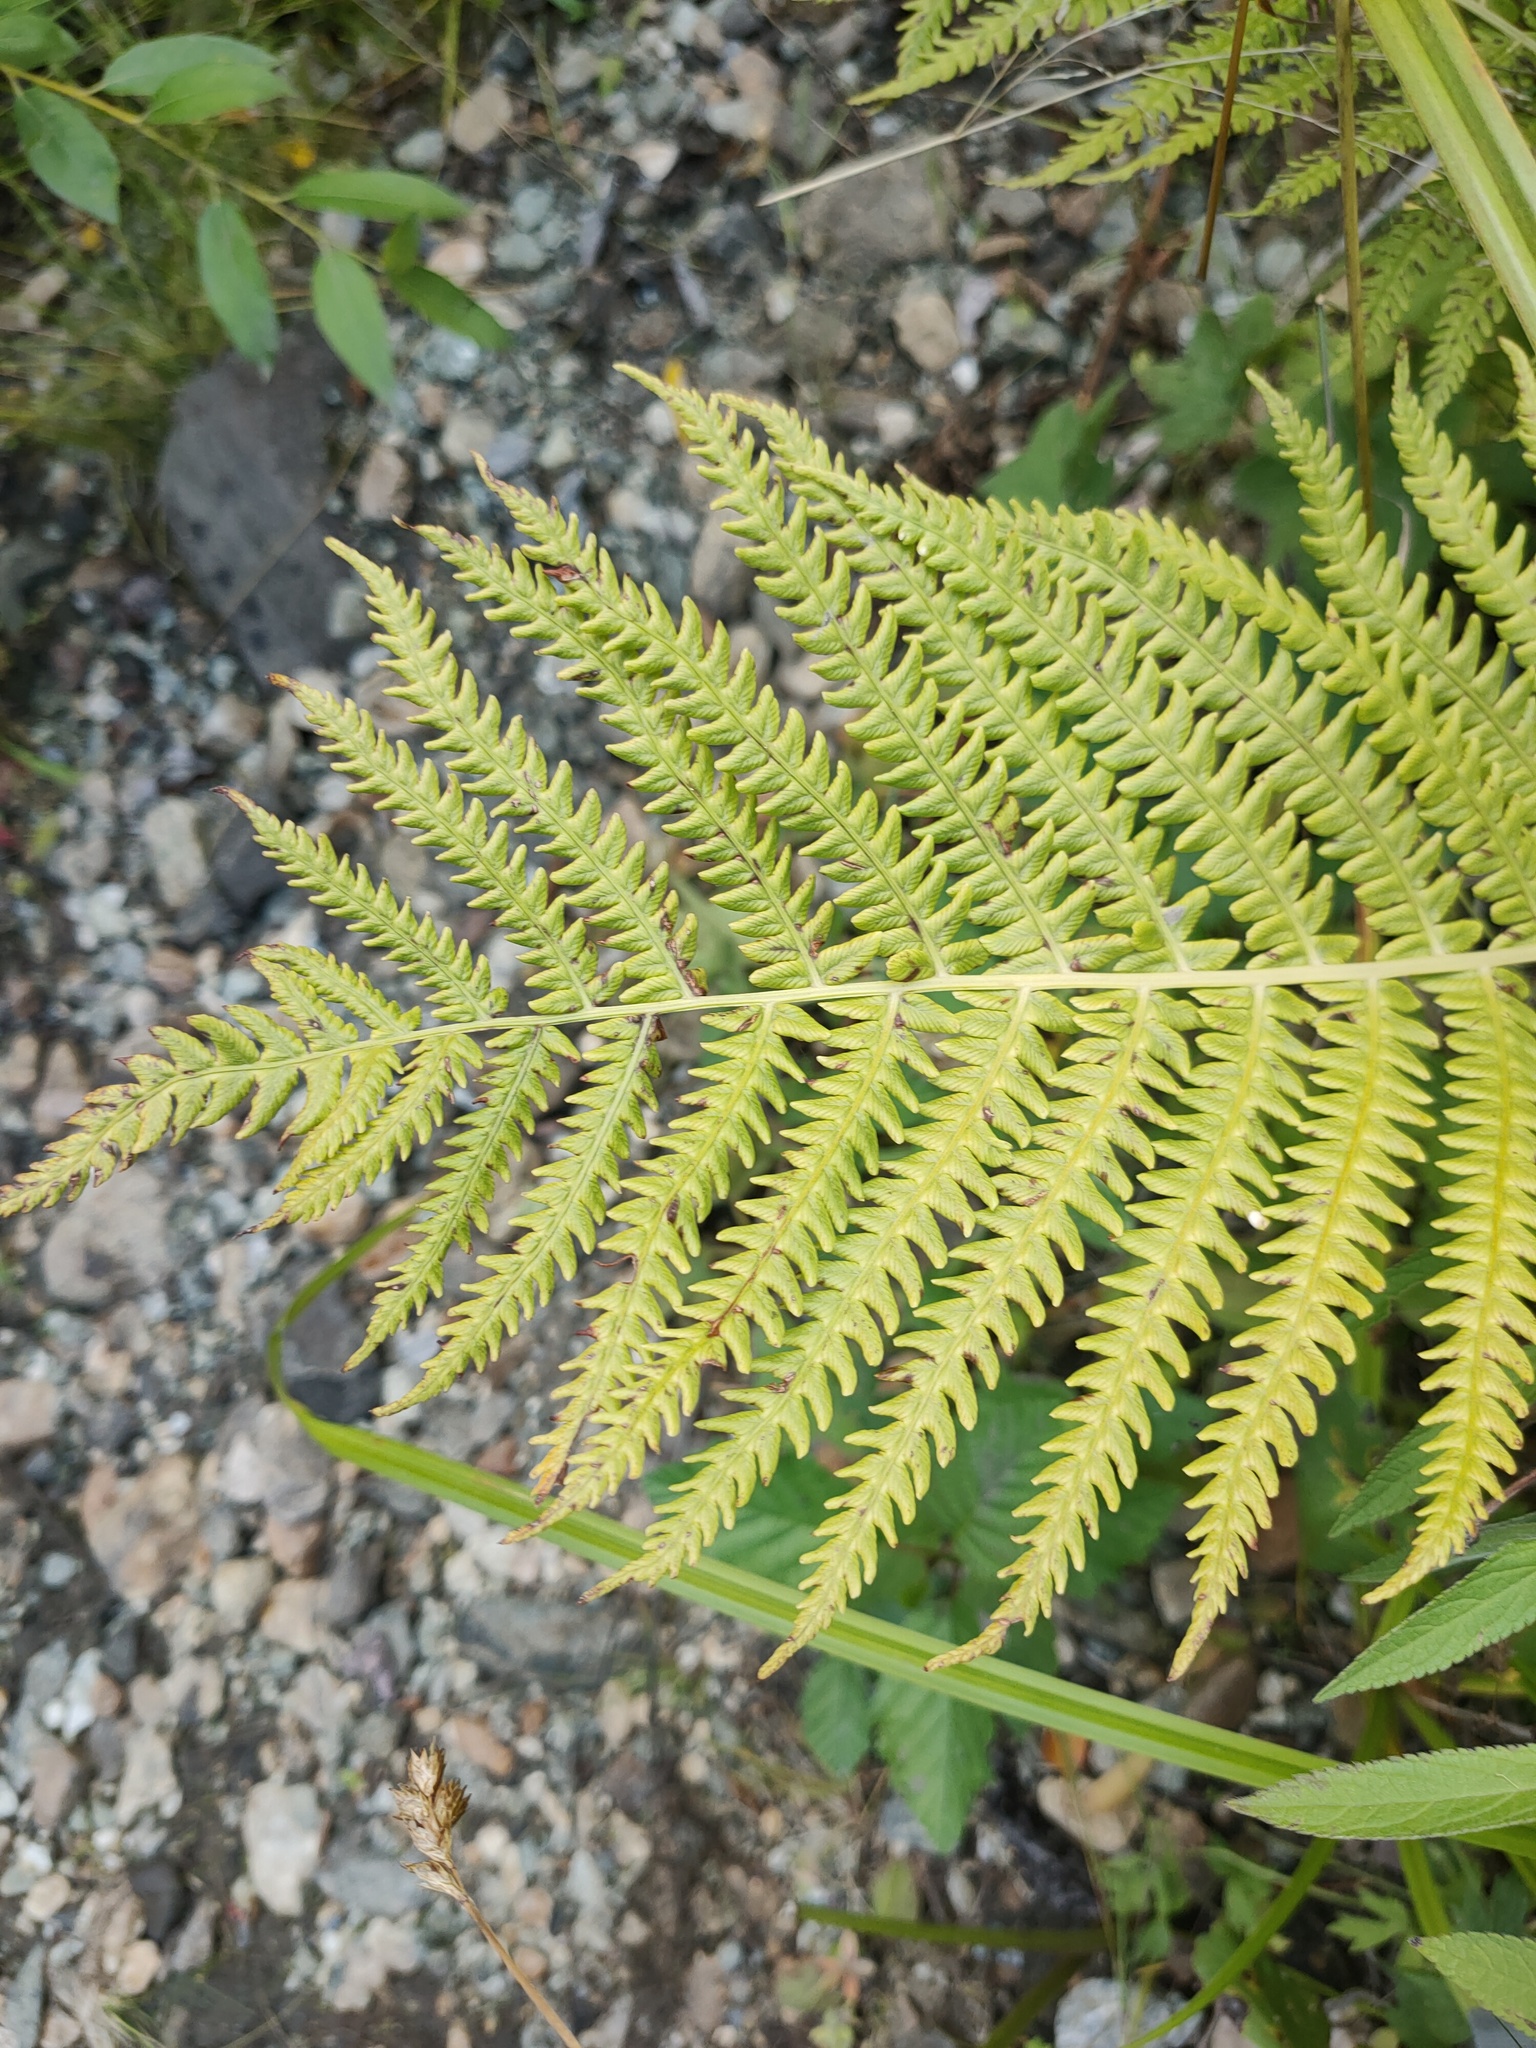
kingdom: Plantae
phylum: Tracheophyta
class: Polypodiopsida
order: Polypodiales
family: Onocleaceae
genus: Matteuccia
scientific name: Matteuccia struthiopteris
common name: Ostrich fern
